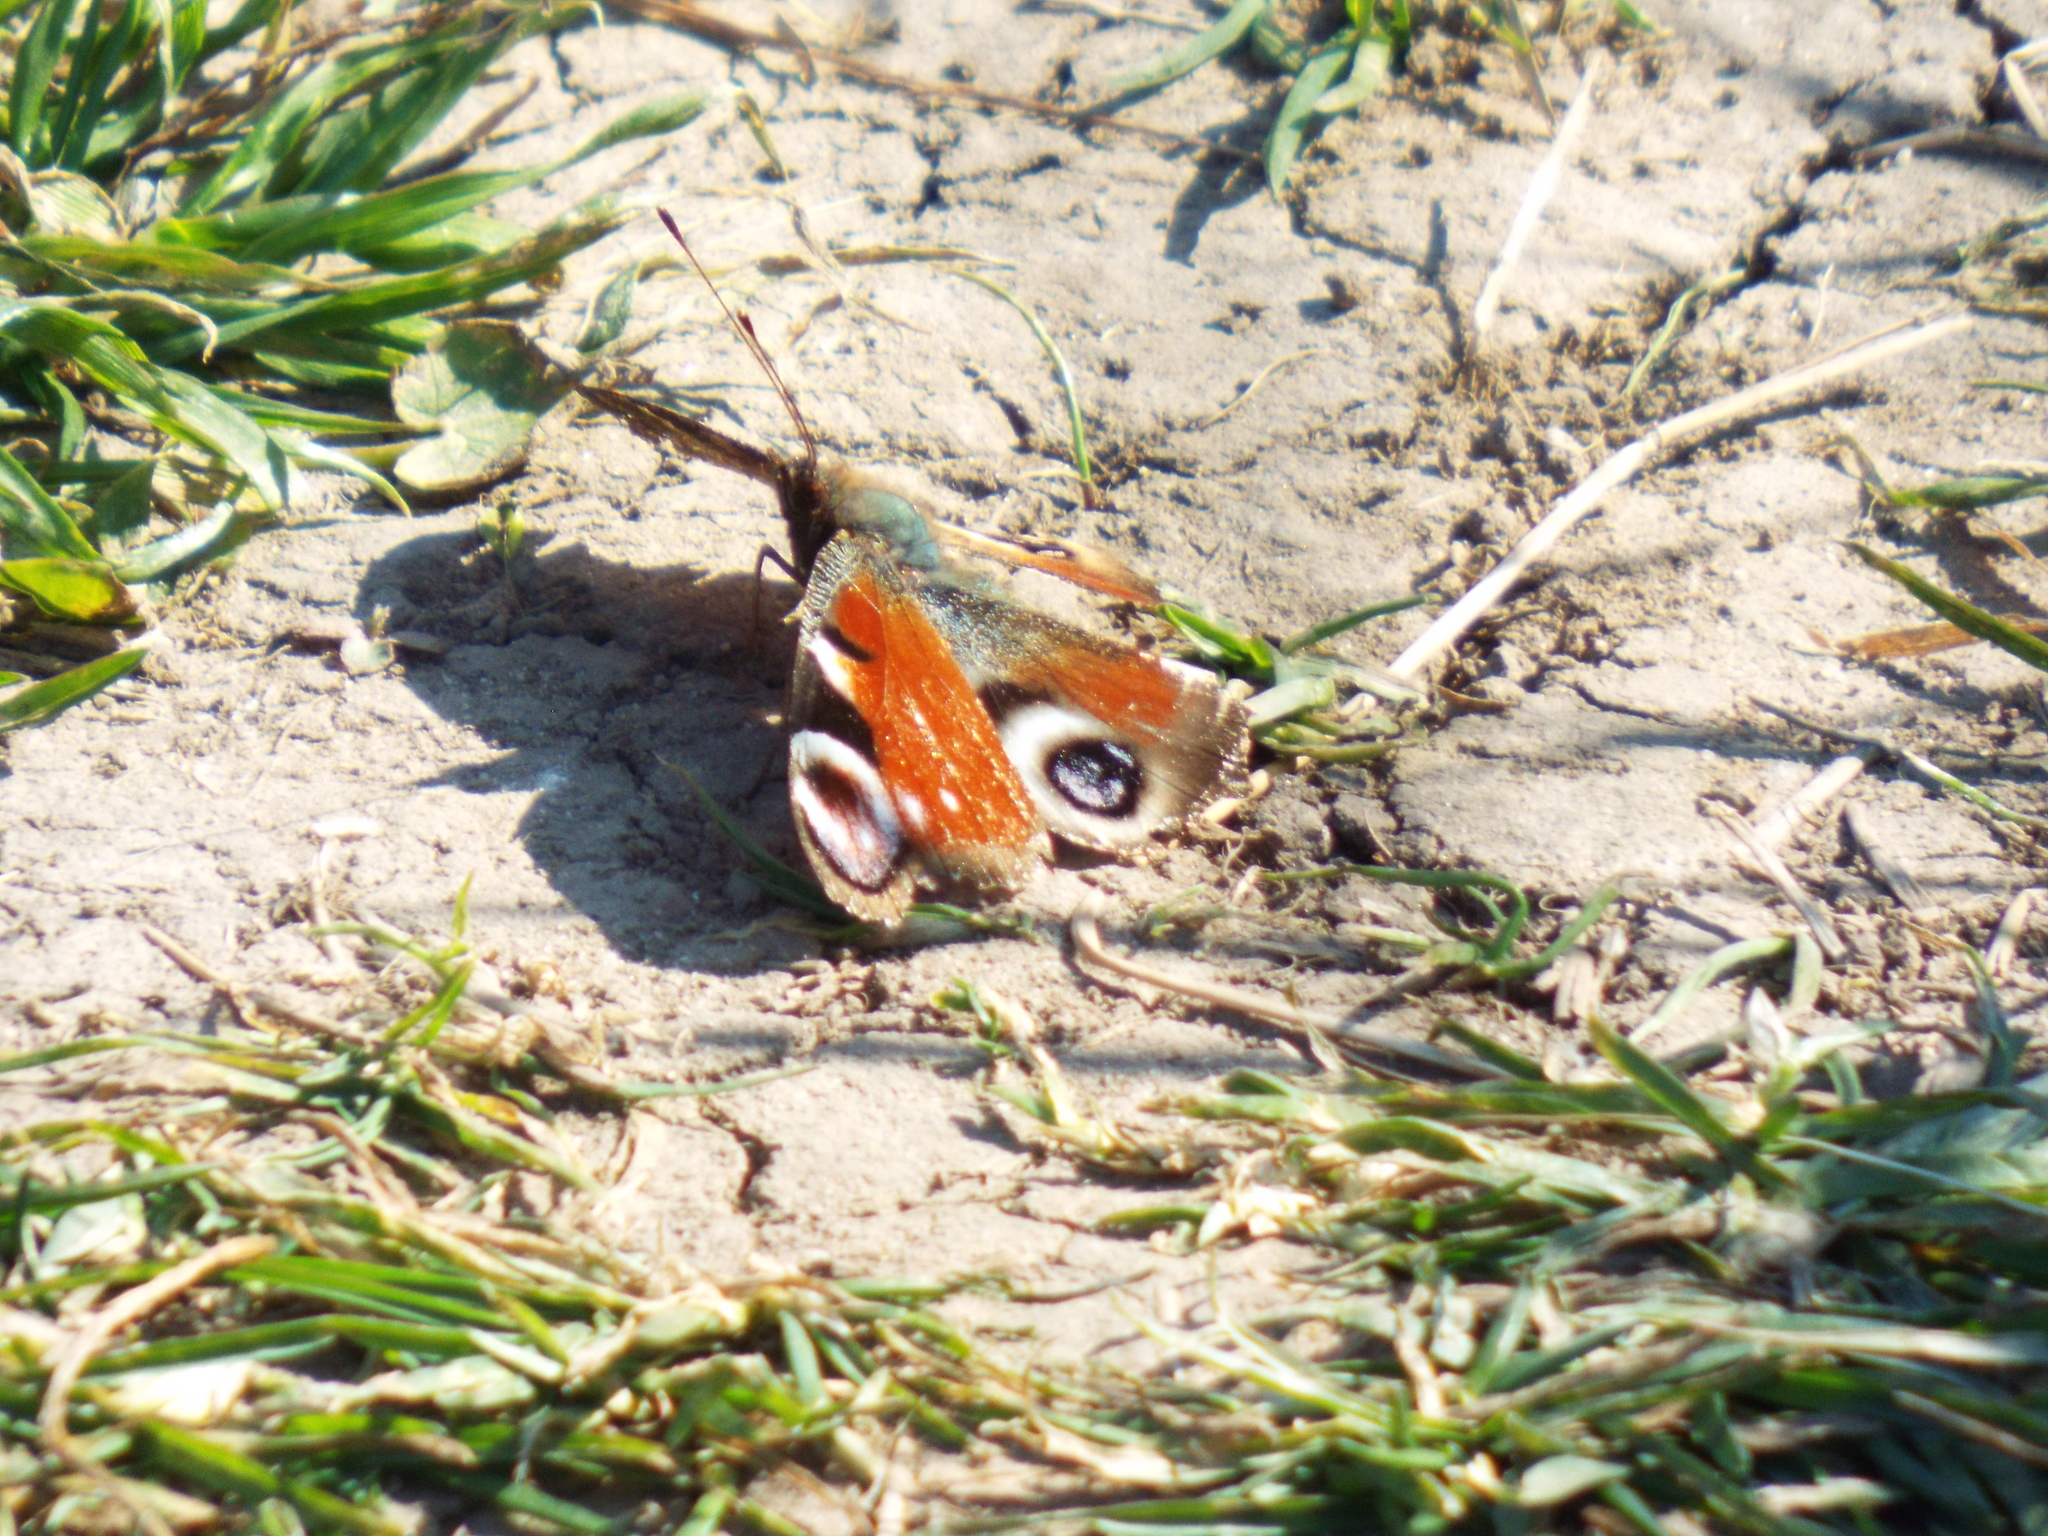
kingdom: Animalia
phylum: Arthropoda
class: Insecta
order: Lepidoptera
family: Nymphalidae
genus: Aglais
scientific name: Aglais io
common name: Peacock
